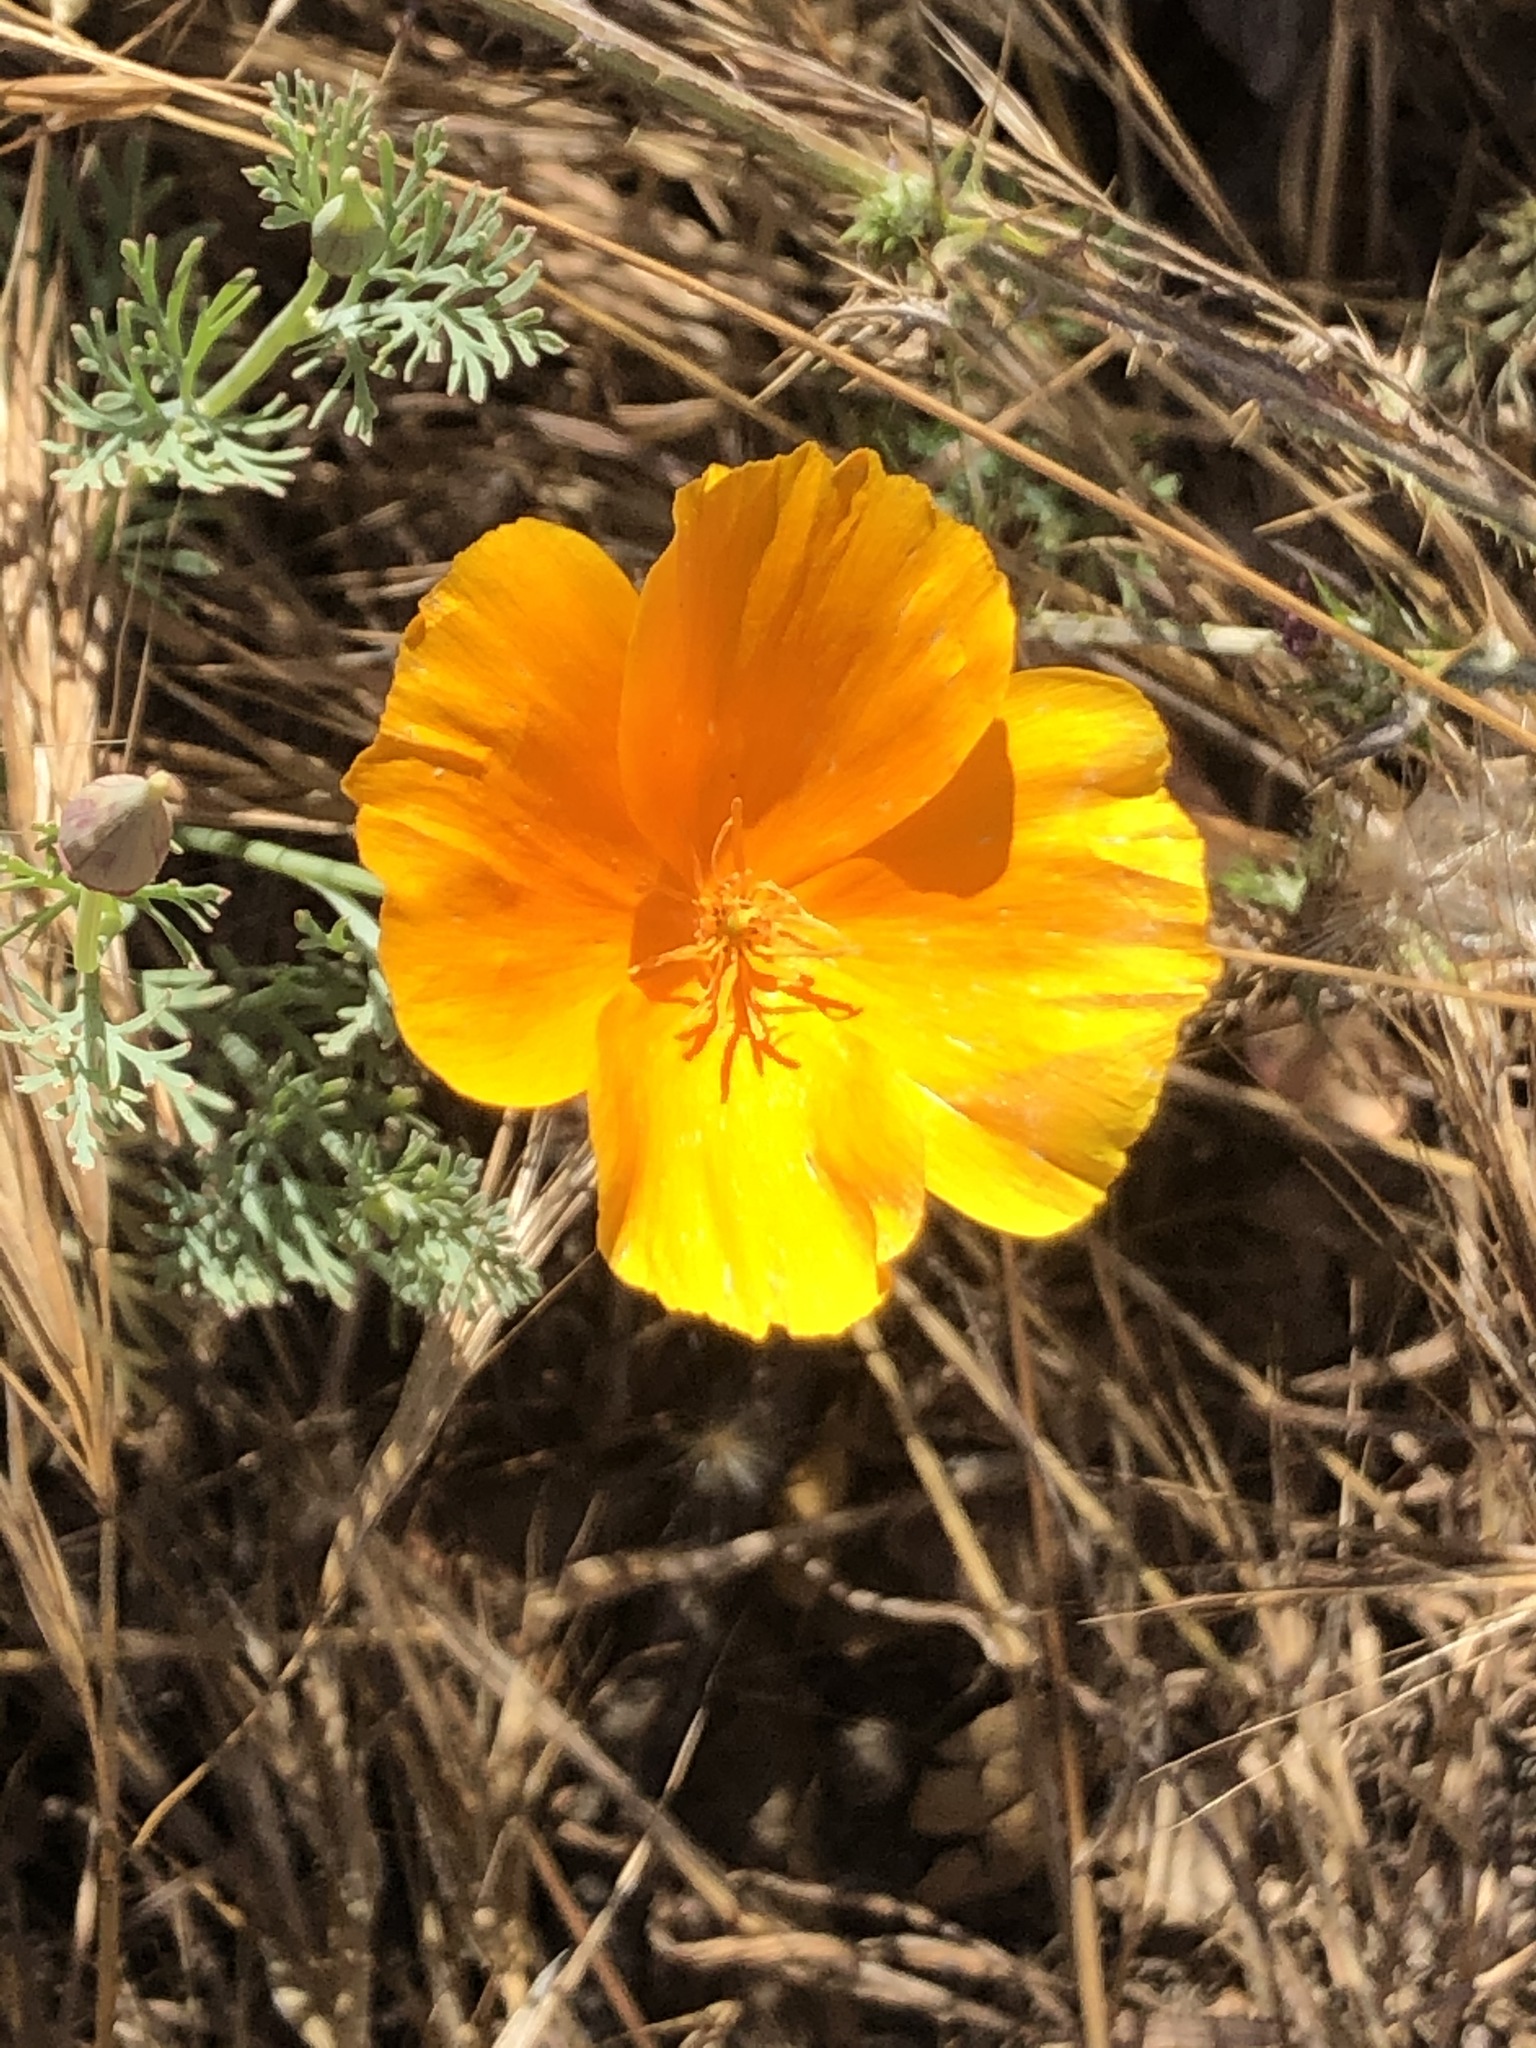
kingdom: Plantae
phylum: Tracheophyta
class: Magnoliopsida
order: Ranunculales
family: Papaveraceae
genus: Eschscholzia
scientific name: Eschscholzia californica
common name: California poppy
